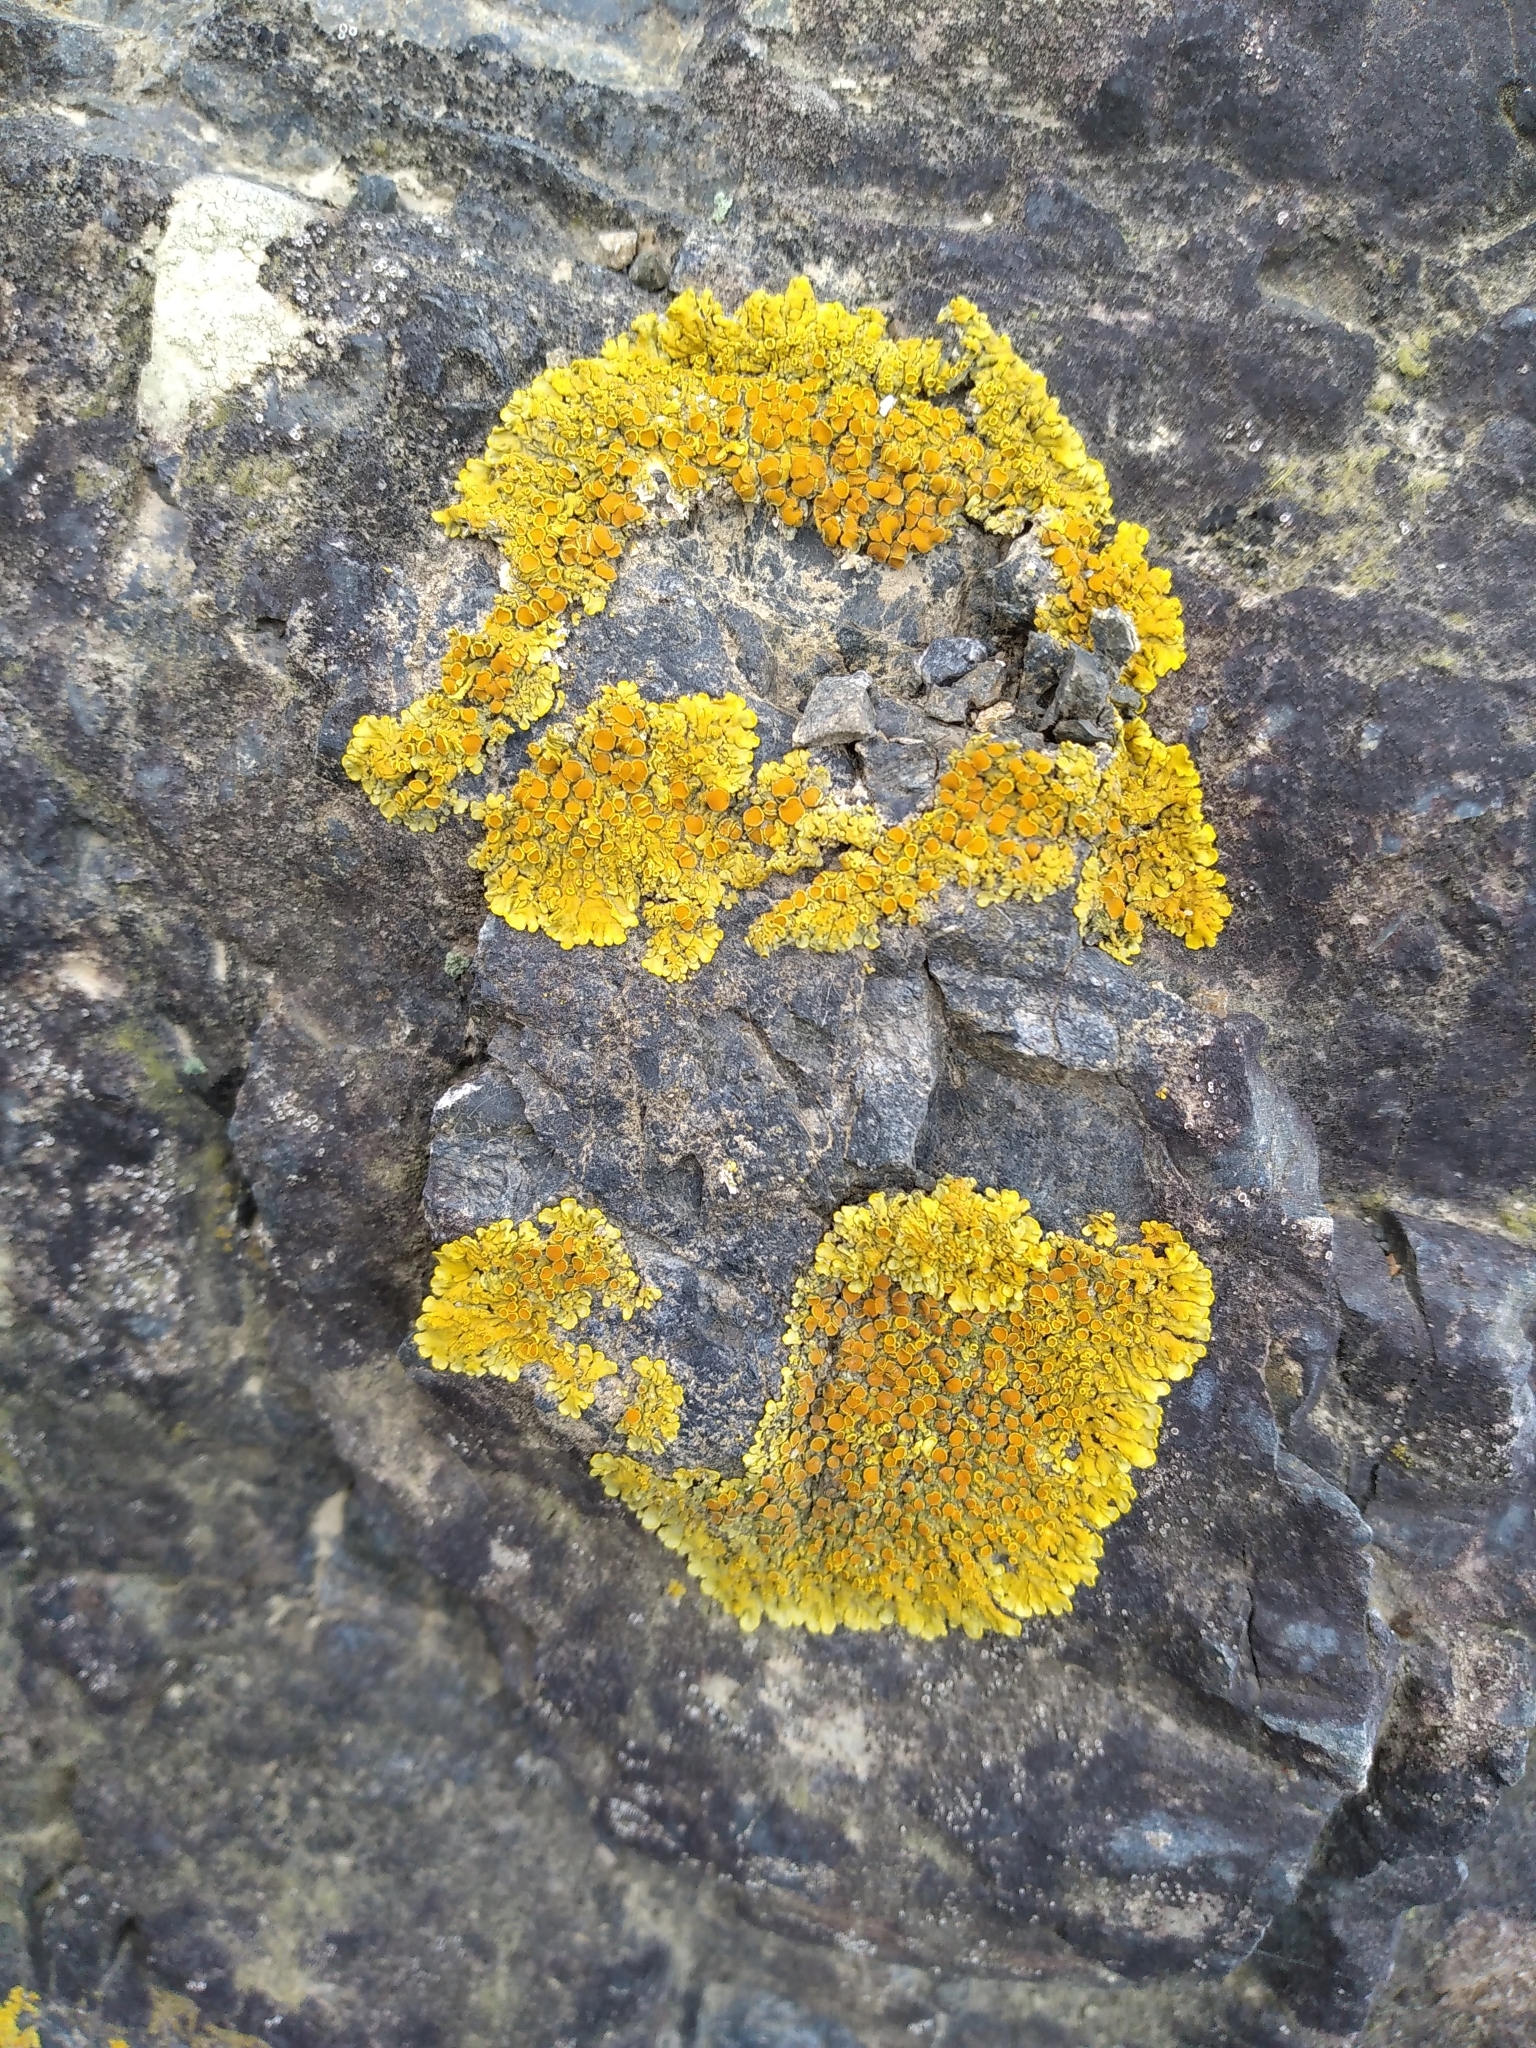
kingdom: Fungi
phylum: Ascomycota
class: Lecanoromycetes
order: Teloschistales
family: Teloschistaceae
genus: Xanthoria
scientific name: Xanthoria parietina
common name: Common orange lichen
